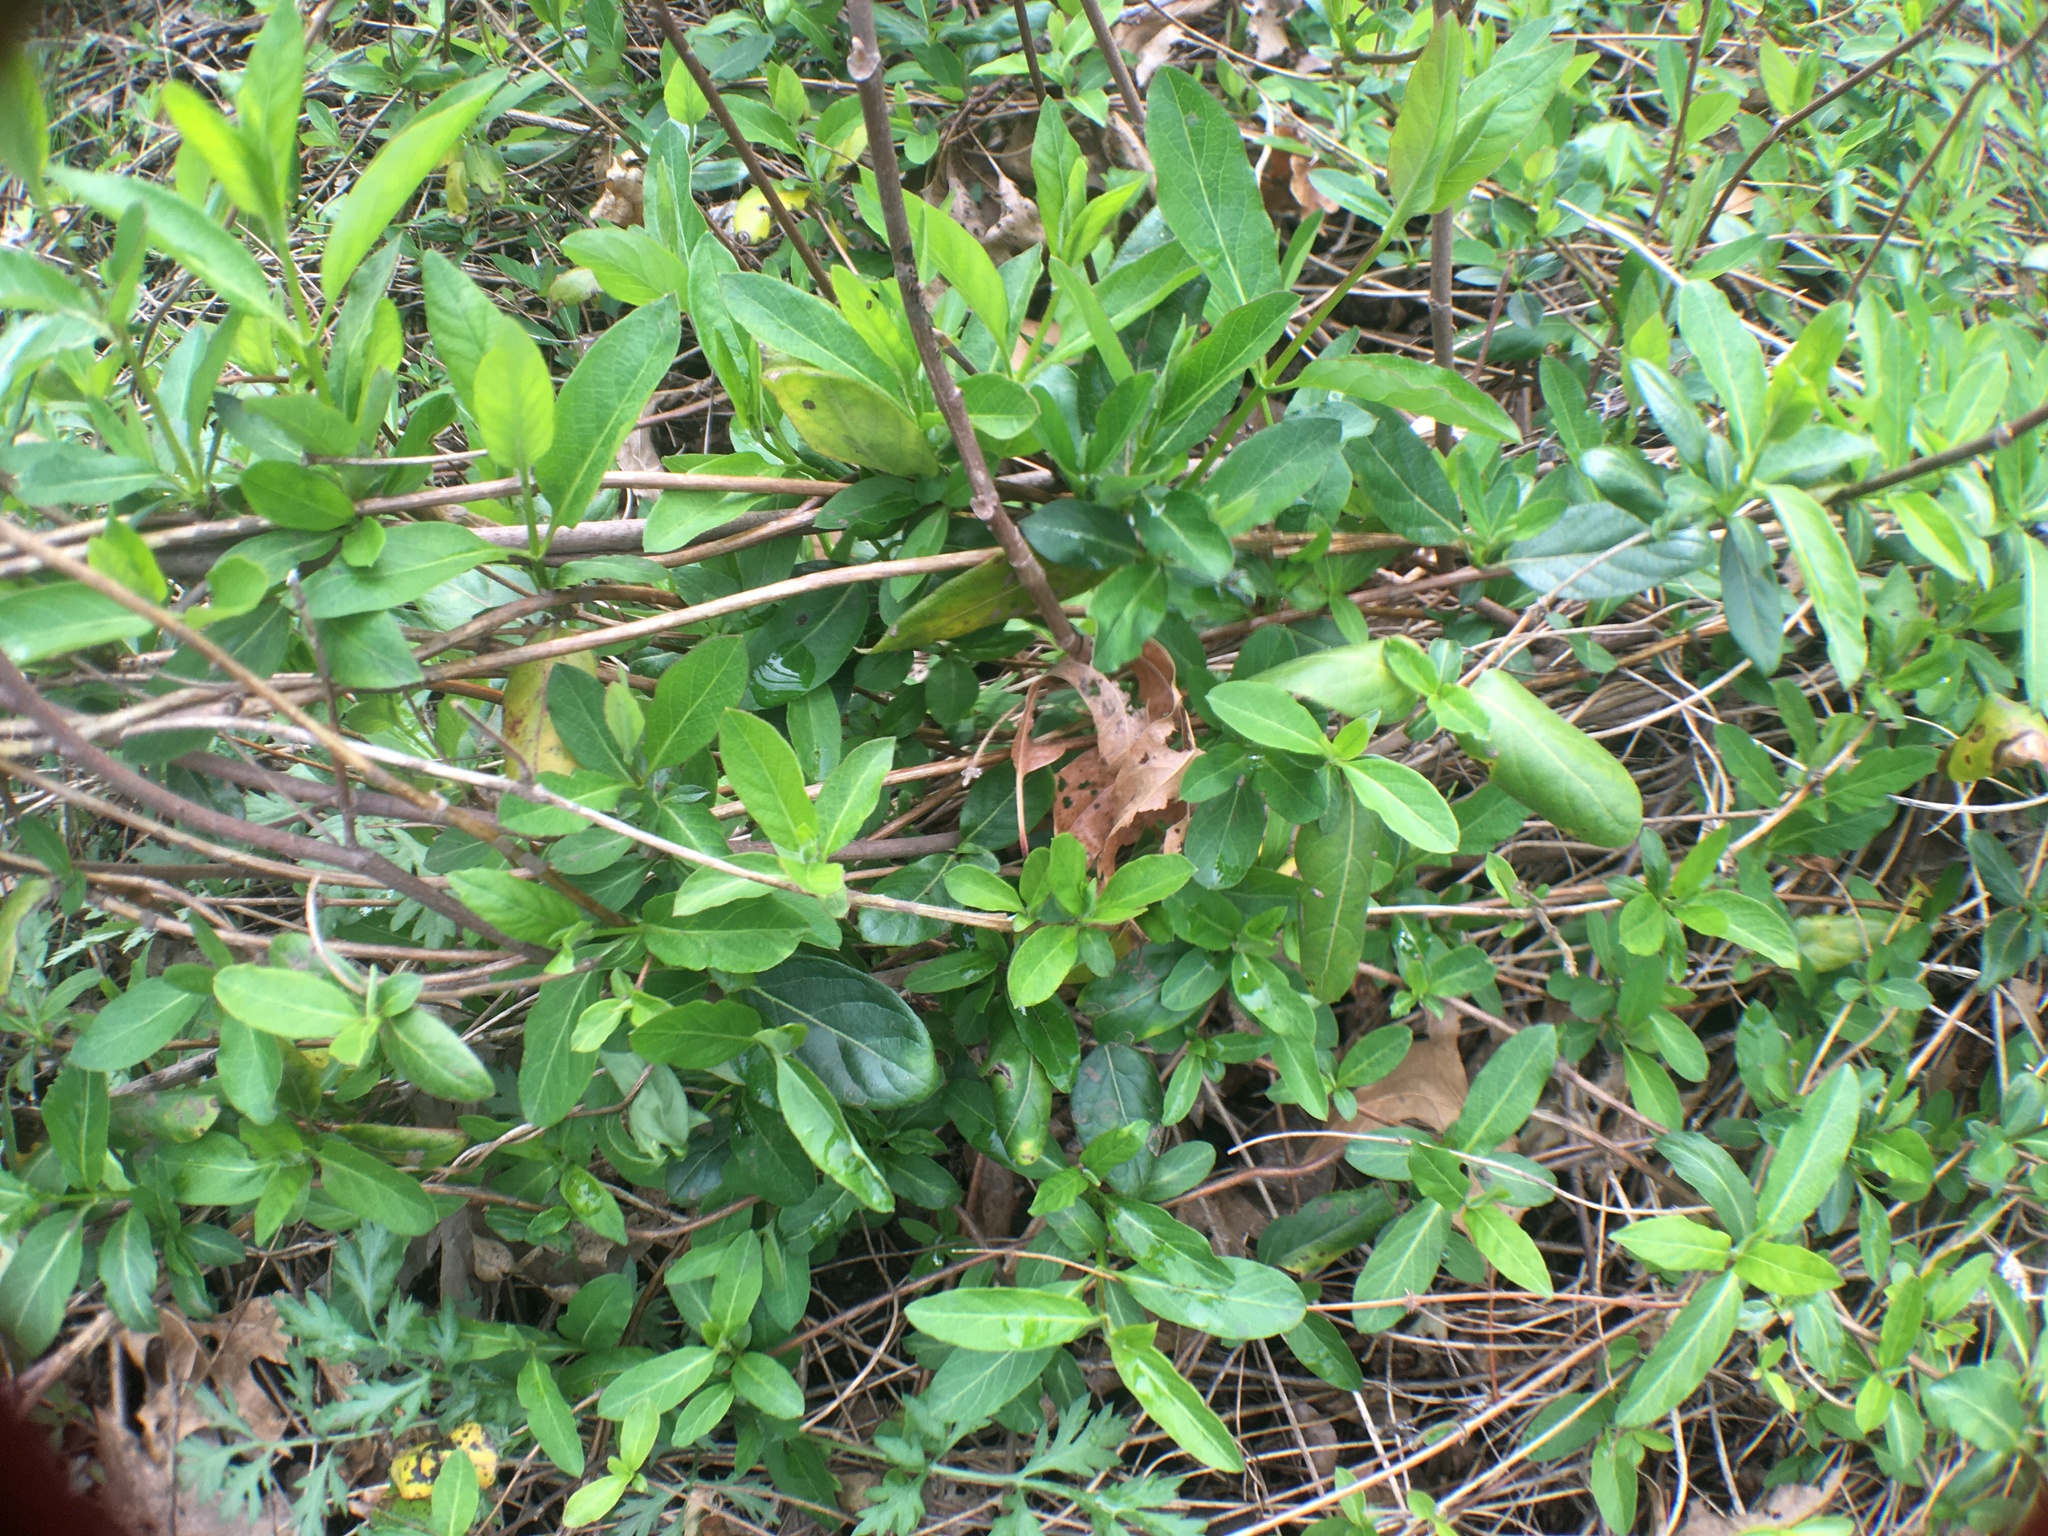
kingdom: Plantae
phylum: Tracheophyta
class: Magnoliopsida
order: Dipsacales
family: Caprifoliaceae
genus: Lonicera
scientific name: Lonicera japonica
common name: Japanese honeysuckle
